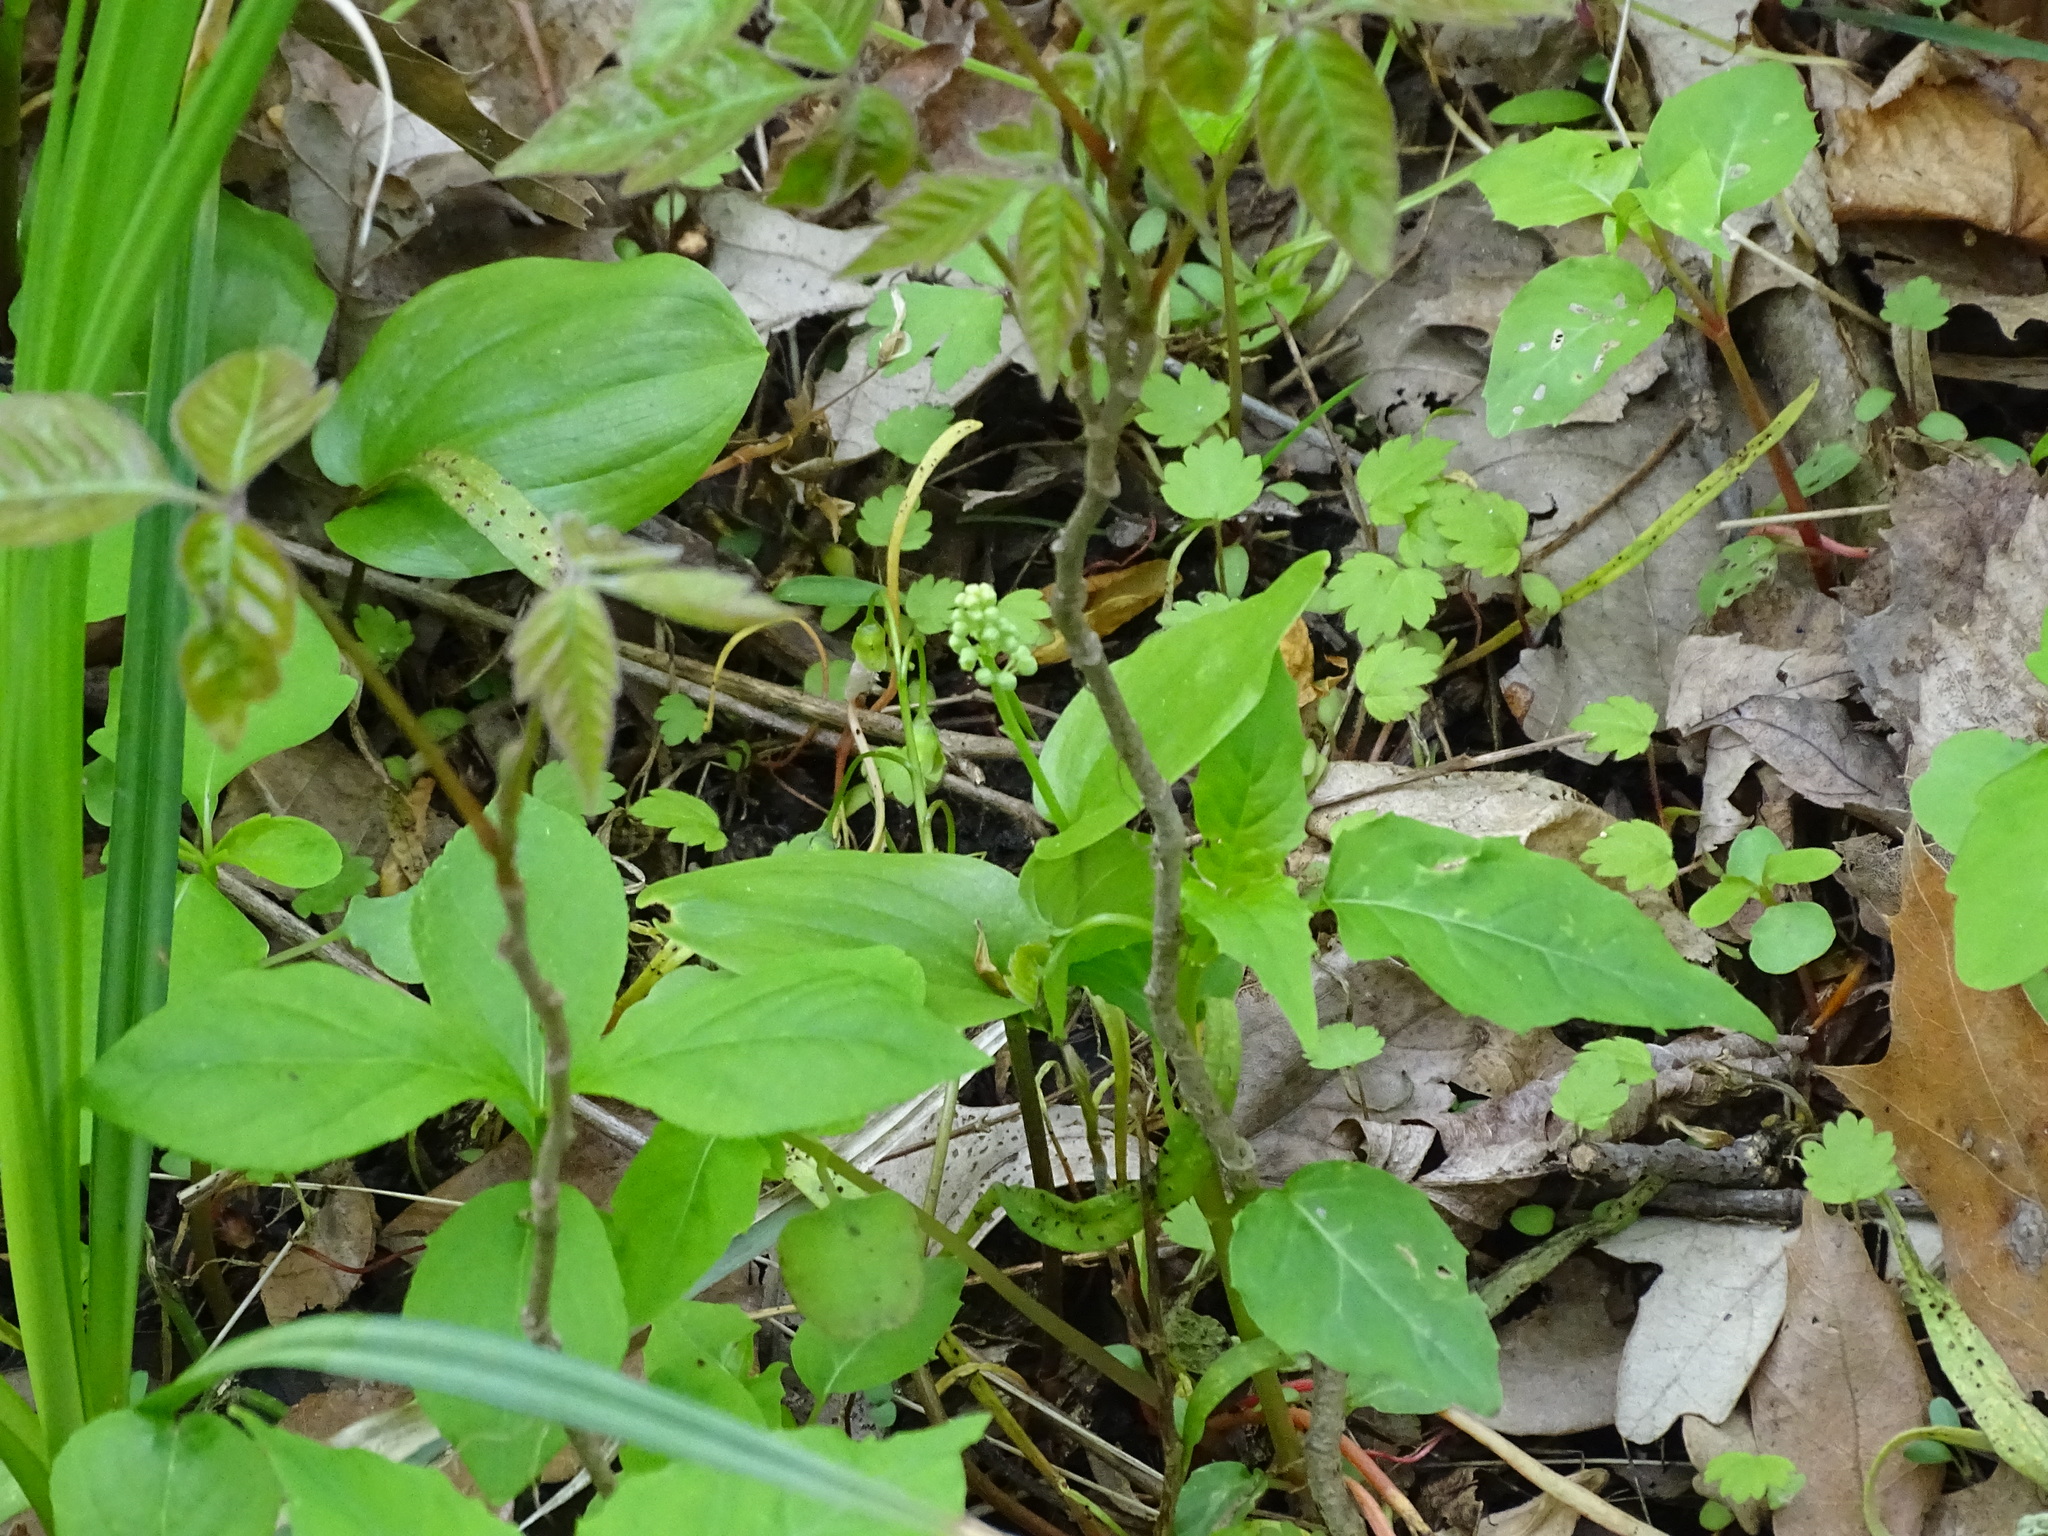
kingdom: Plantae
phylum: Tracheophyta
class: Liliopsida
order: Asparagales
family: Asparagaceae
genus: Maianthemum
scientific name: Maianthemum canadense
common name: False lily-of-the-valley
